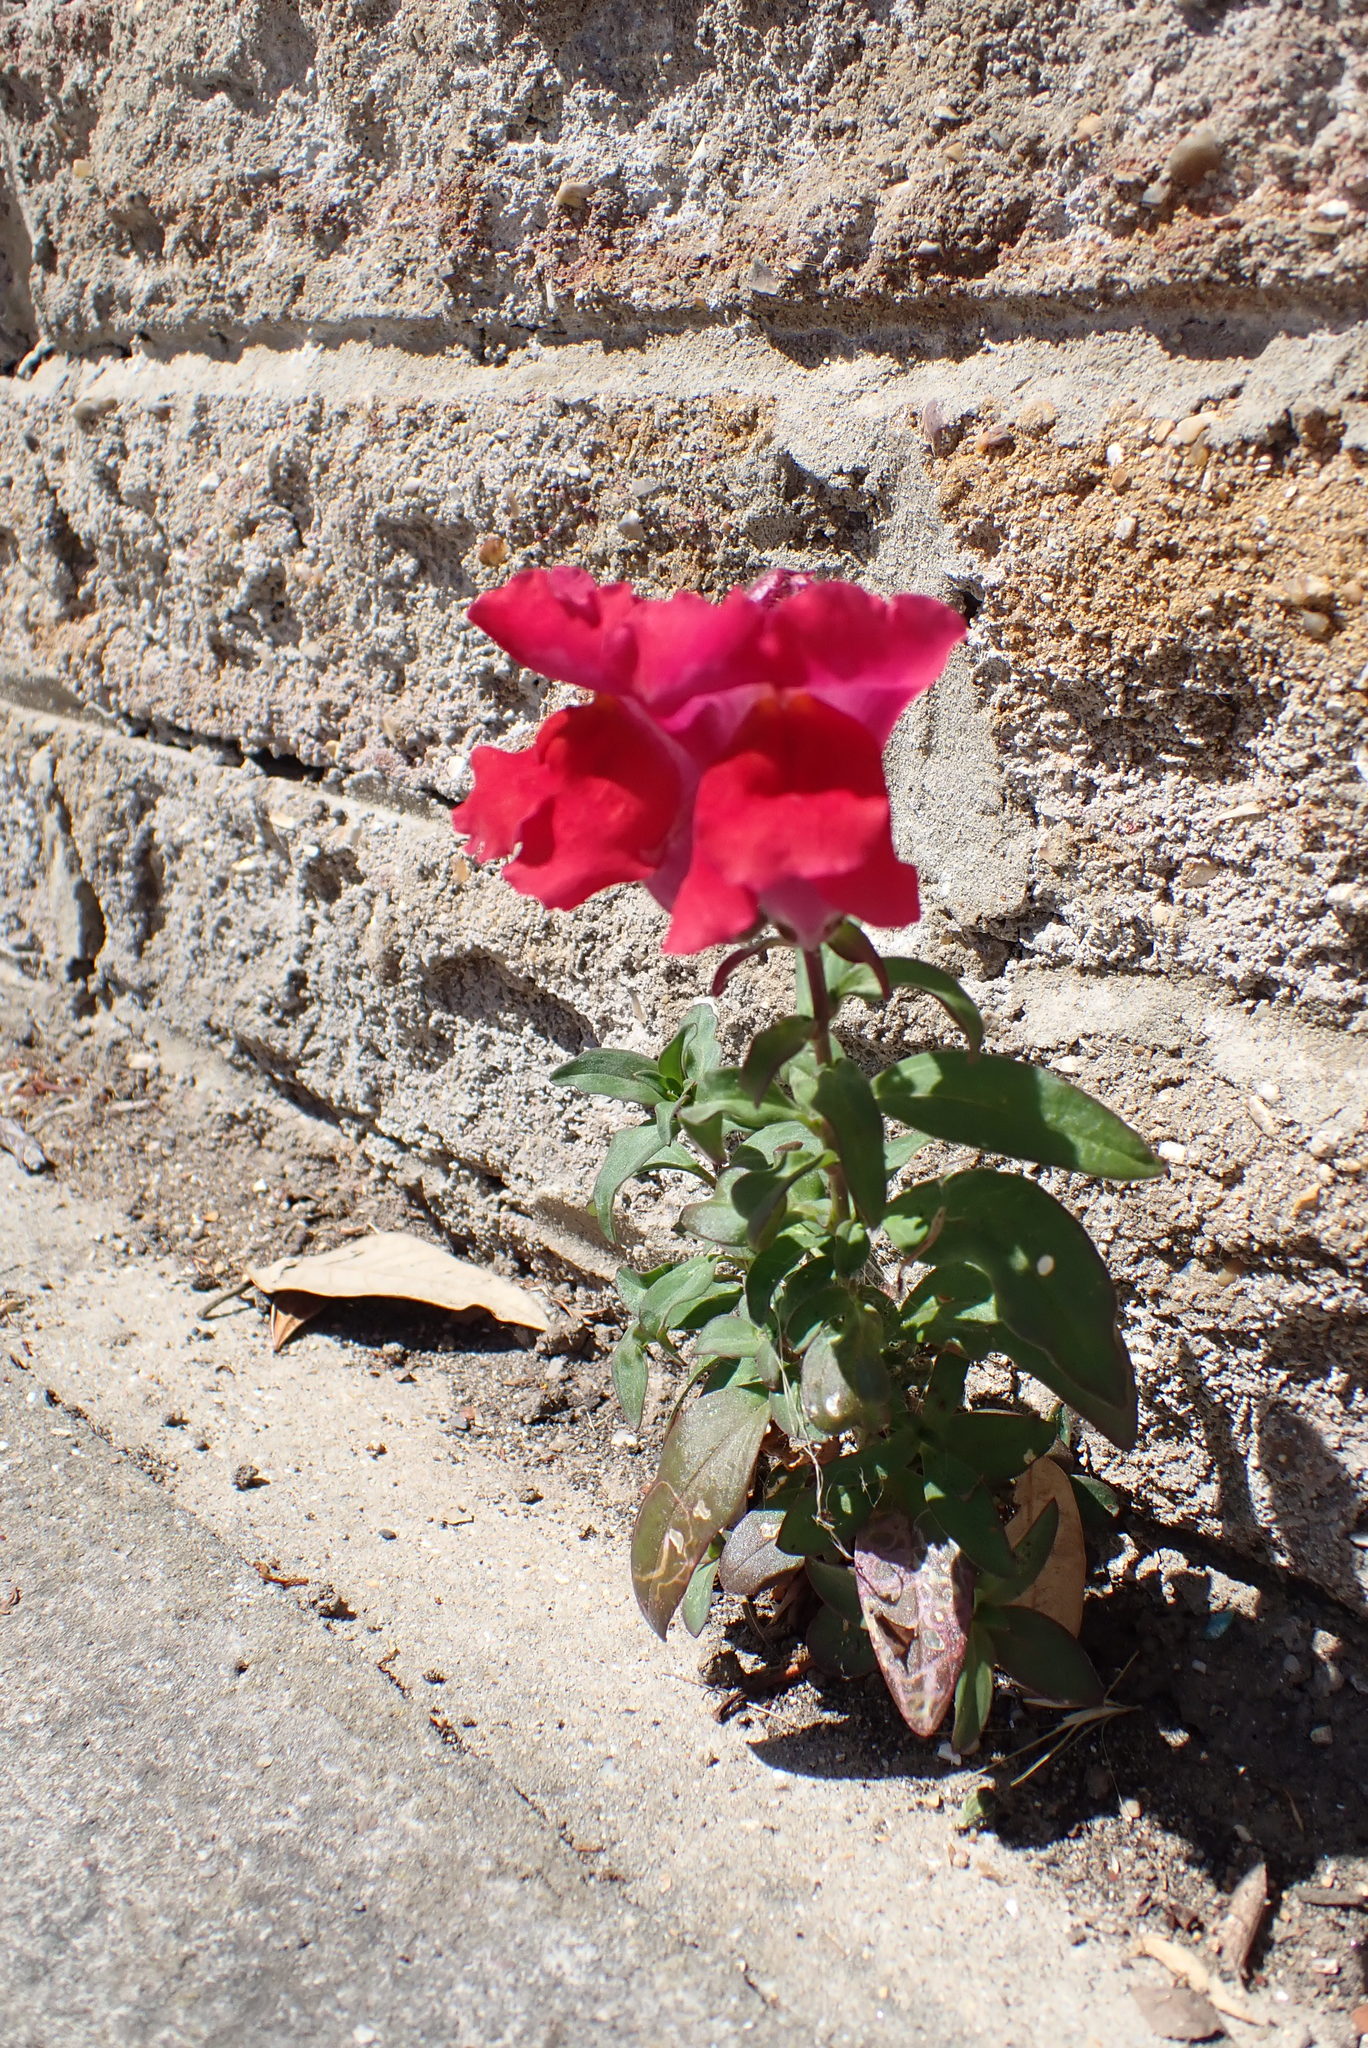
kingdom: Plantae
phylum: Tracheophyta
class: Magnoliopsida
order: Lamiales
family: Plantaginaceae
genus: Antirrhinum
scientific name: Antirrhinum majus
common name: Snapdragon
